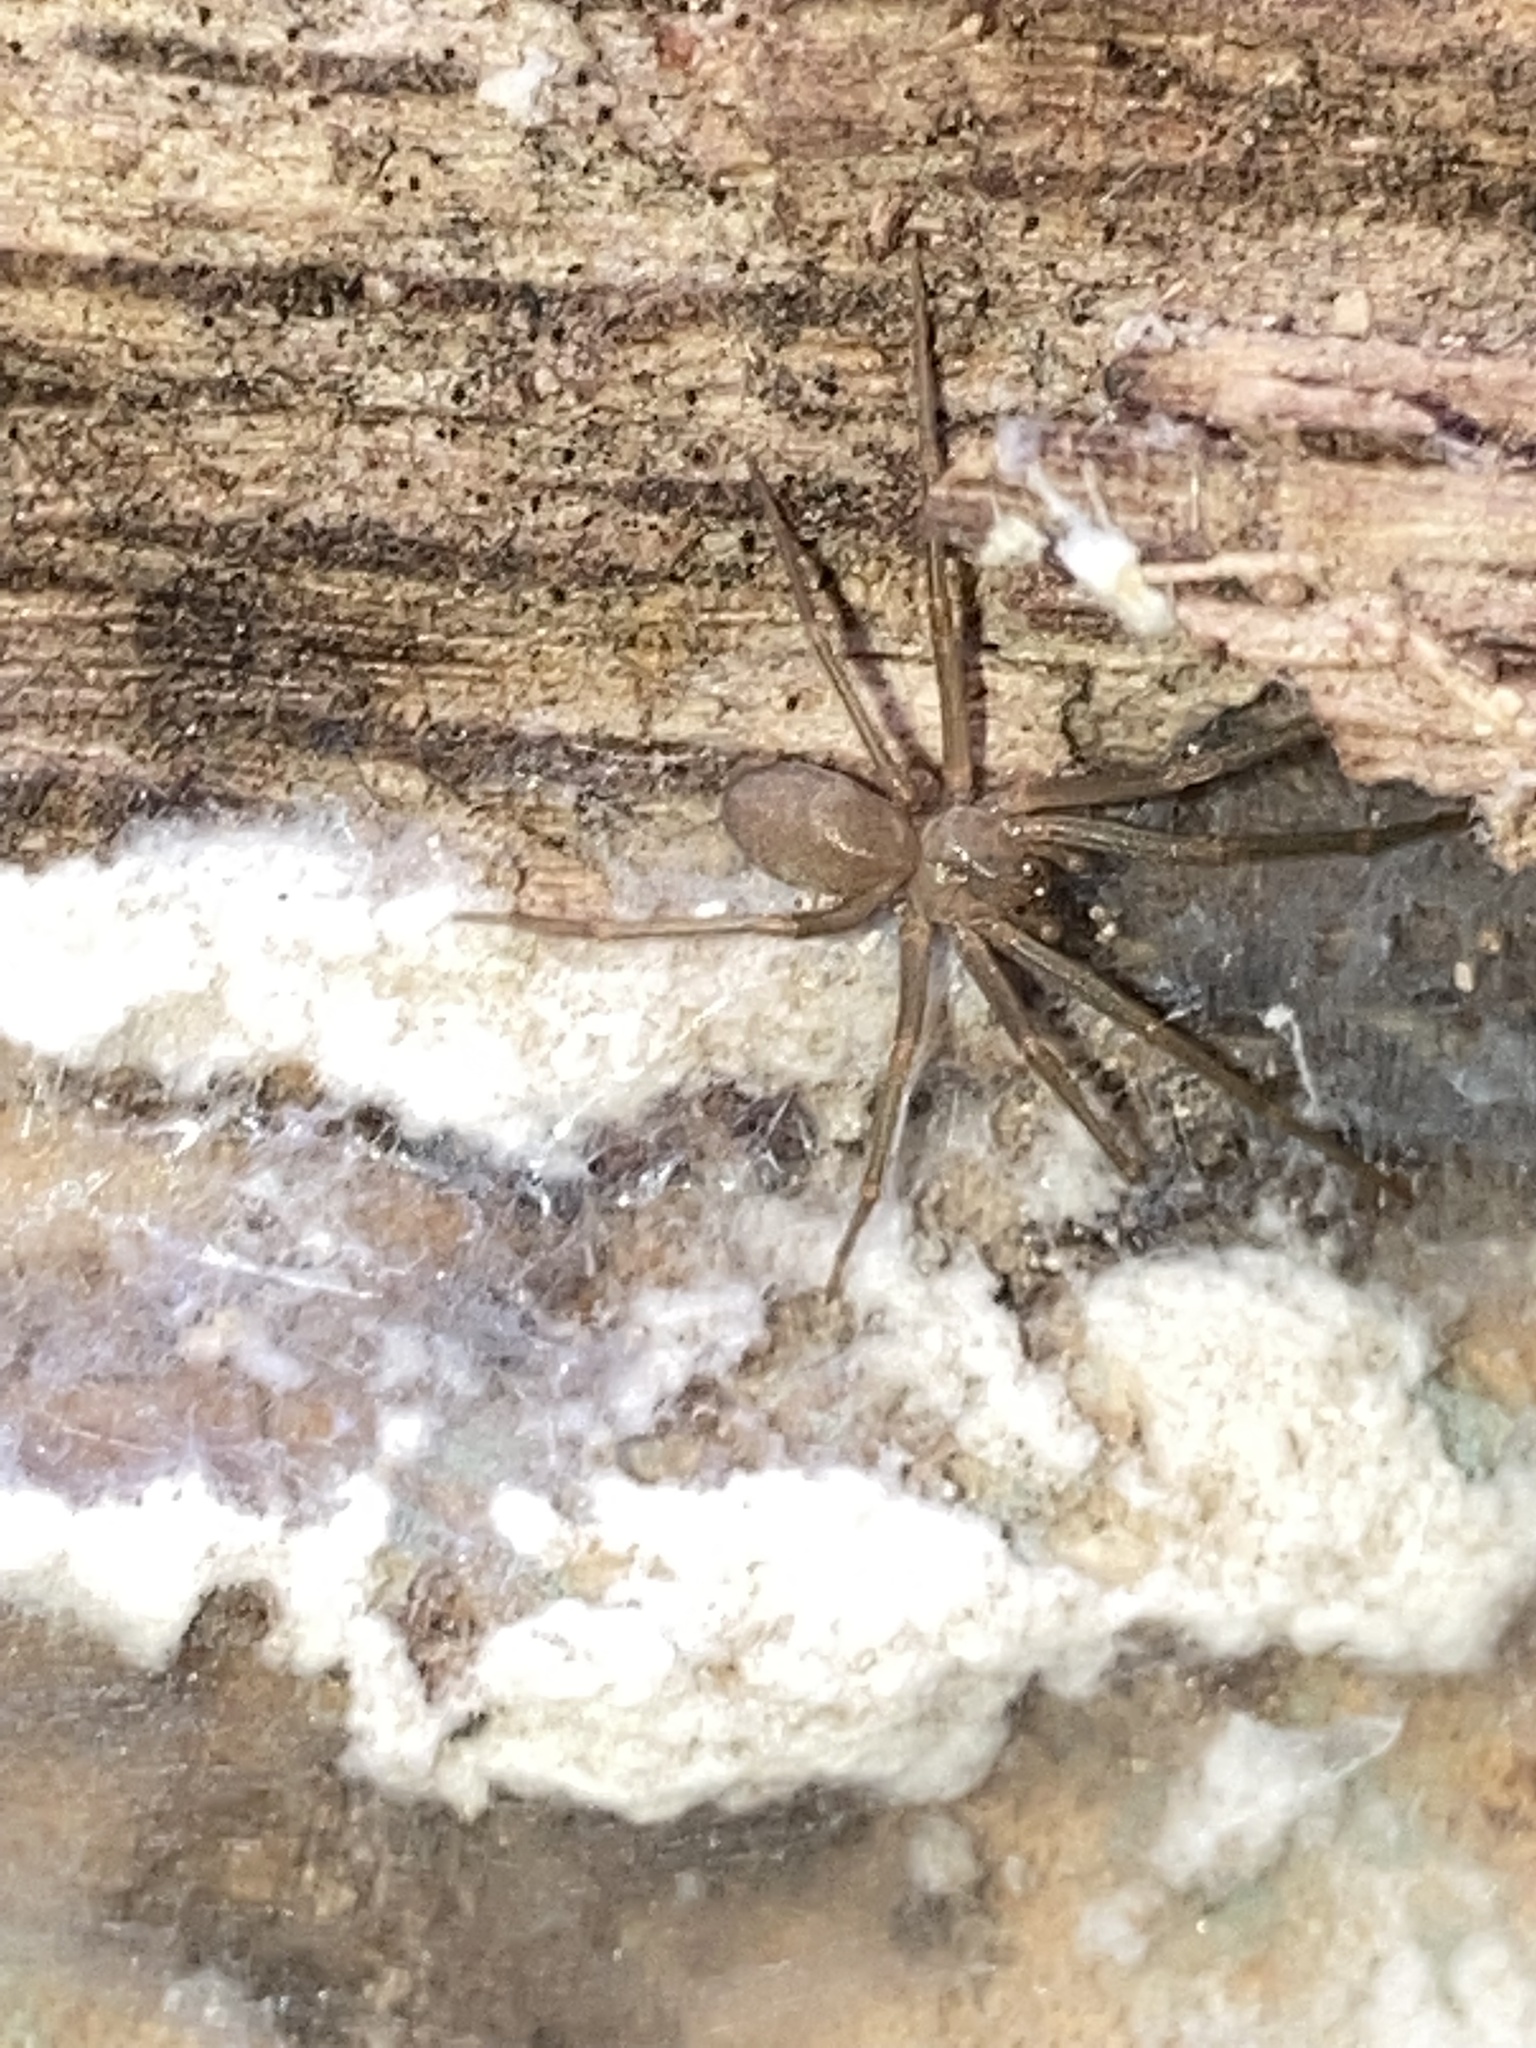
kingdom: Animalia
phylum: Arthropoda
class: Arachnida
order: Araneae
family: Sicariidae
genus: Loxosceles
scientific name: Loxosceles reclusa
